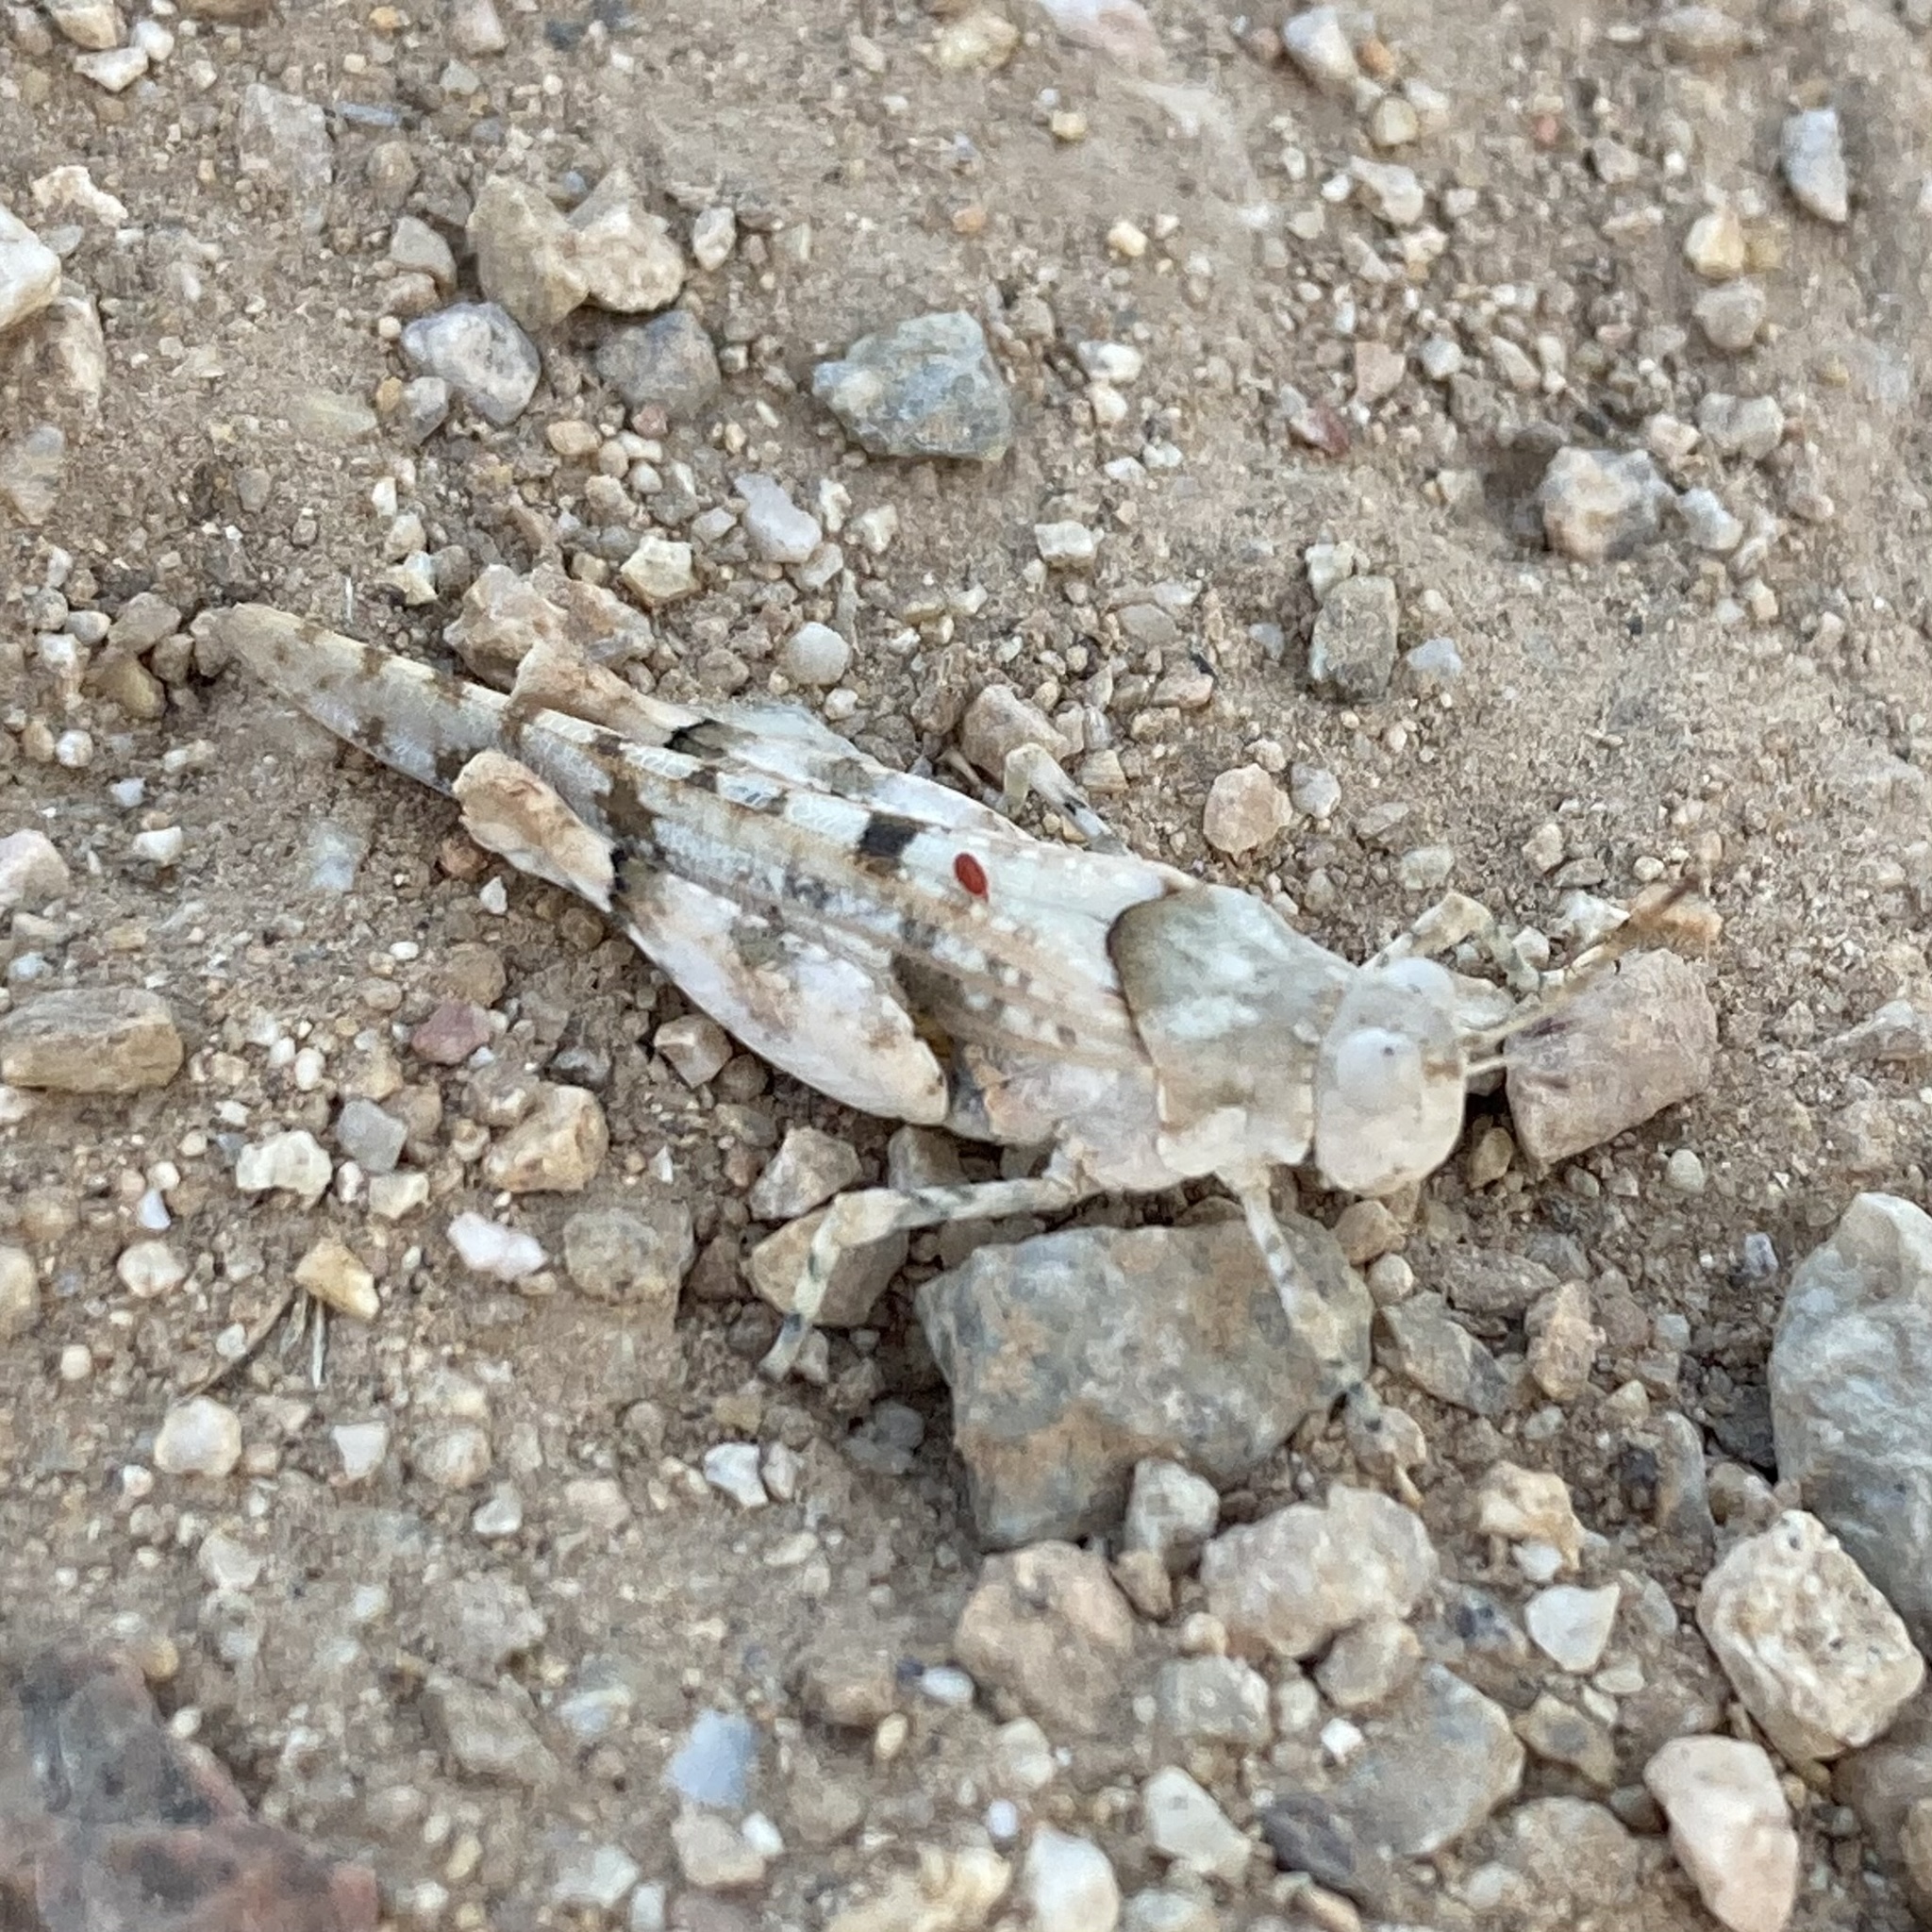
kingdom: Animalia
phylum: Arthropoda
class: Insecta
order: Orthoptera
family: Acrididae
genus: Cibolacris
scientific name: Cibolacris parviceps
